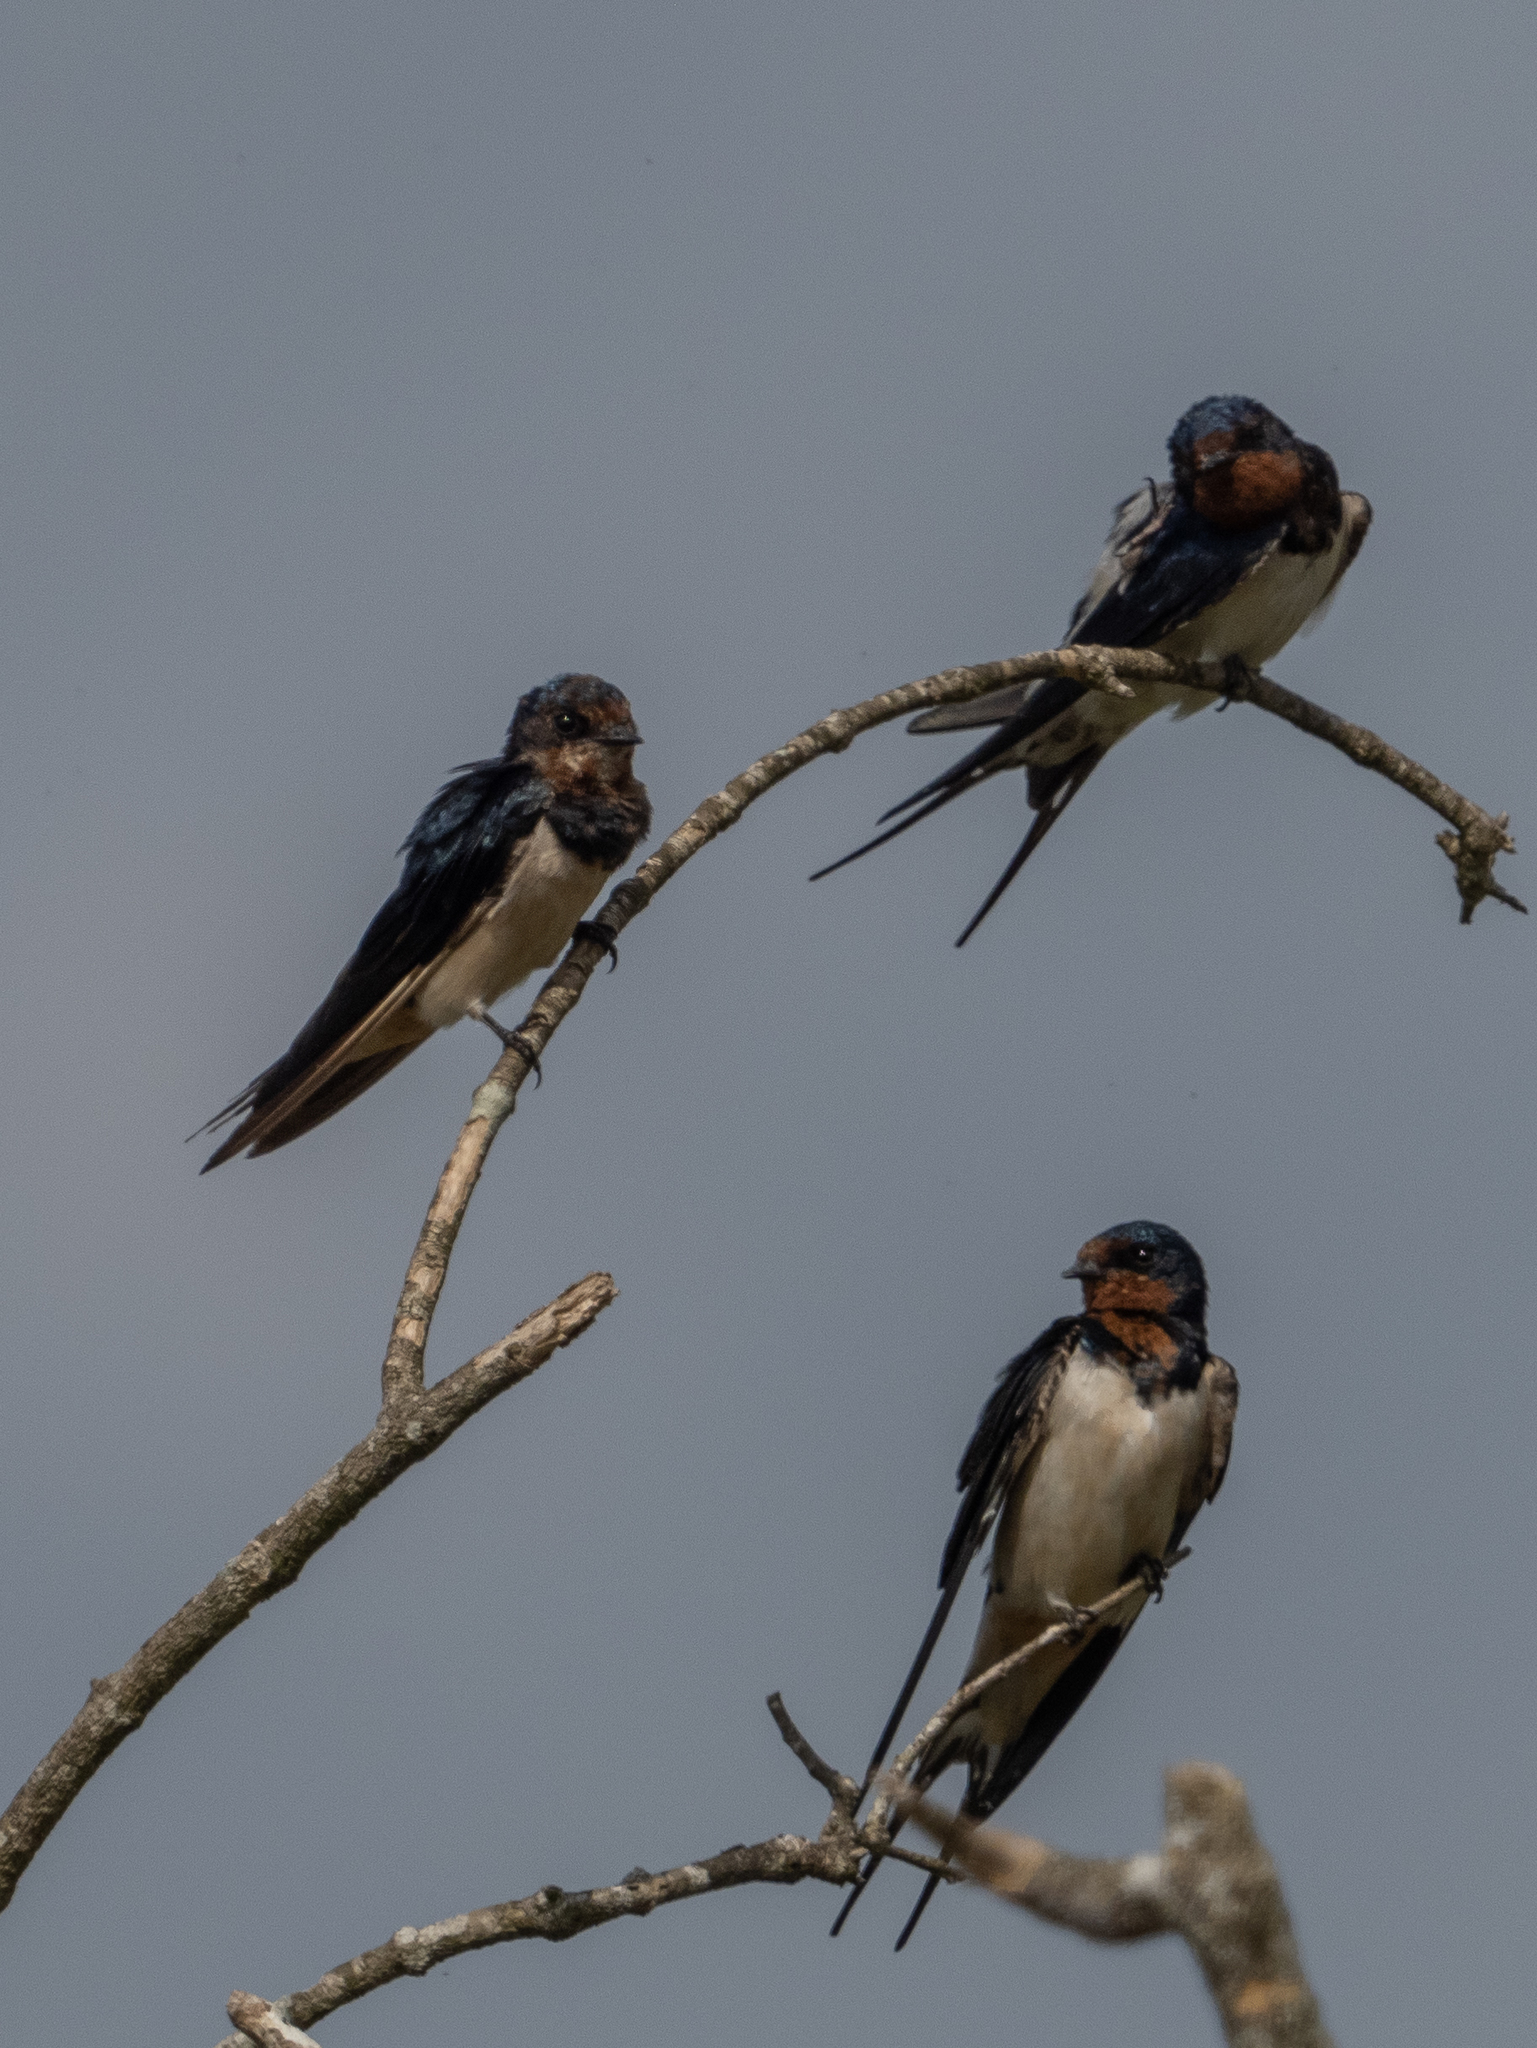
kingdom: Animalia
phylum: Chordata
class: Aves
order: Passeriformes
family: Hirundinidae
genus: Hirundo
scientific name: Hirundo rustica
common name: Barn swallow
